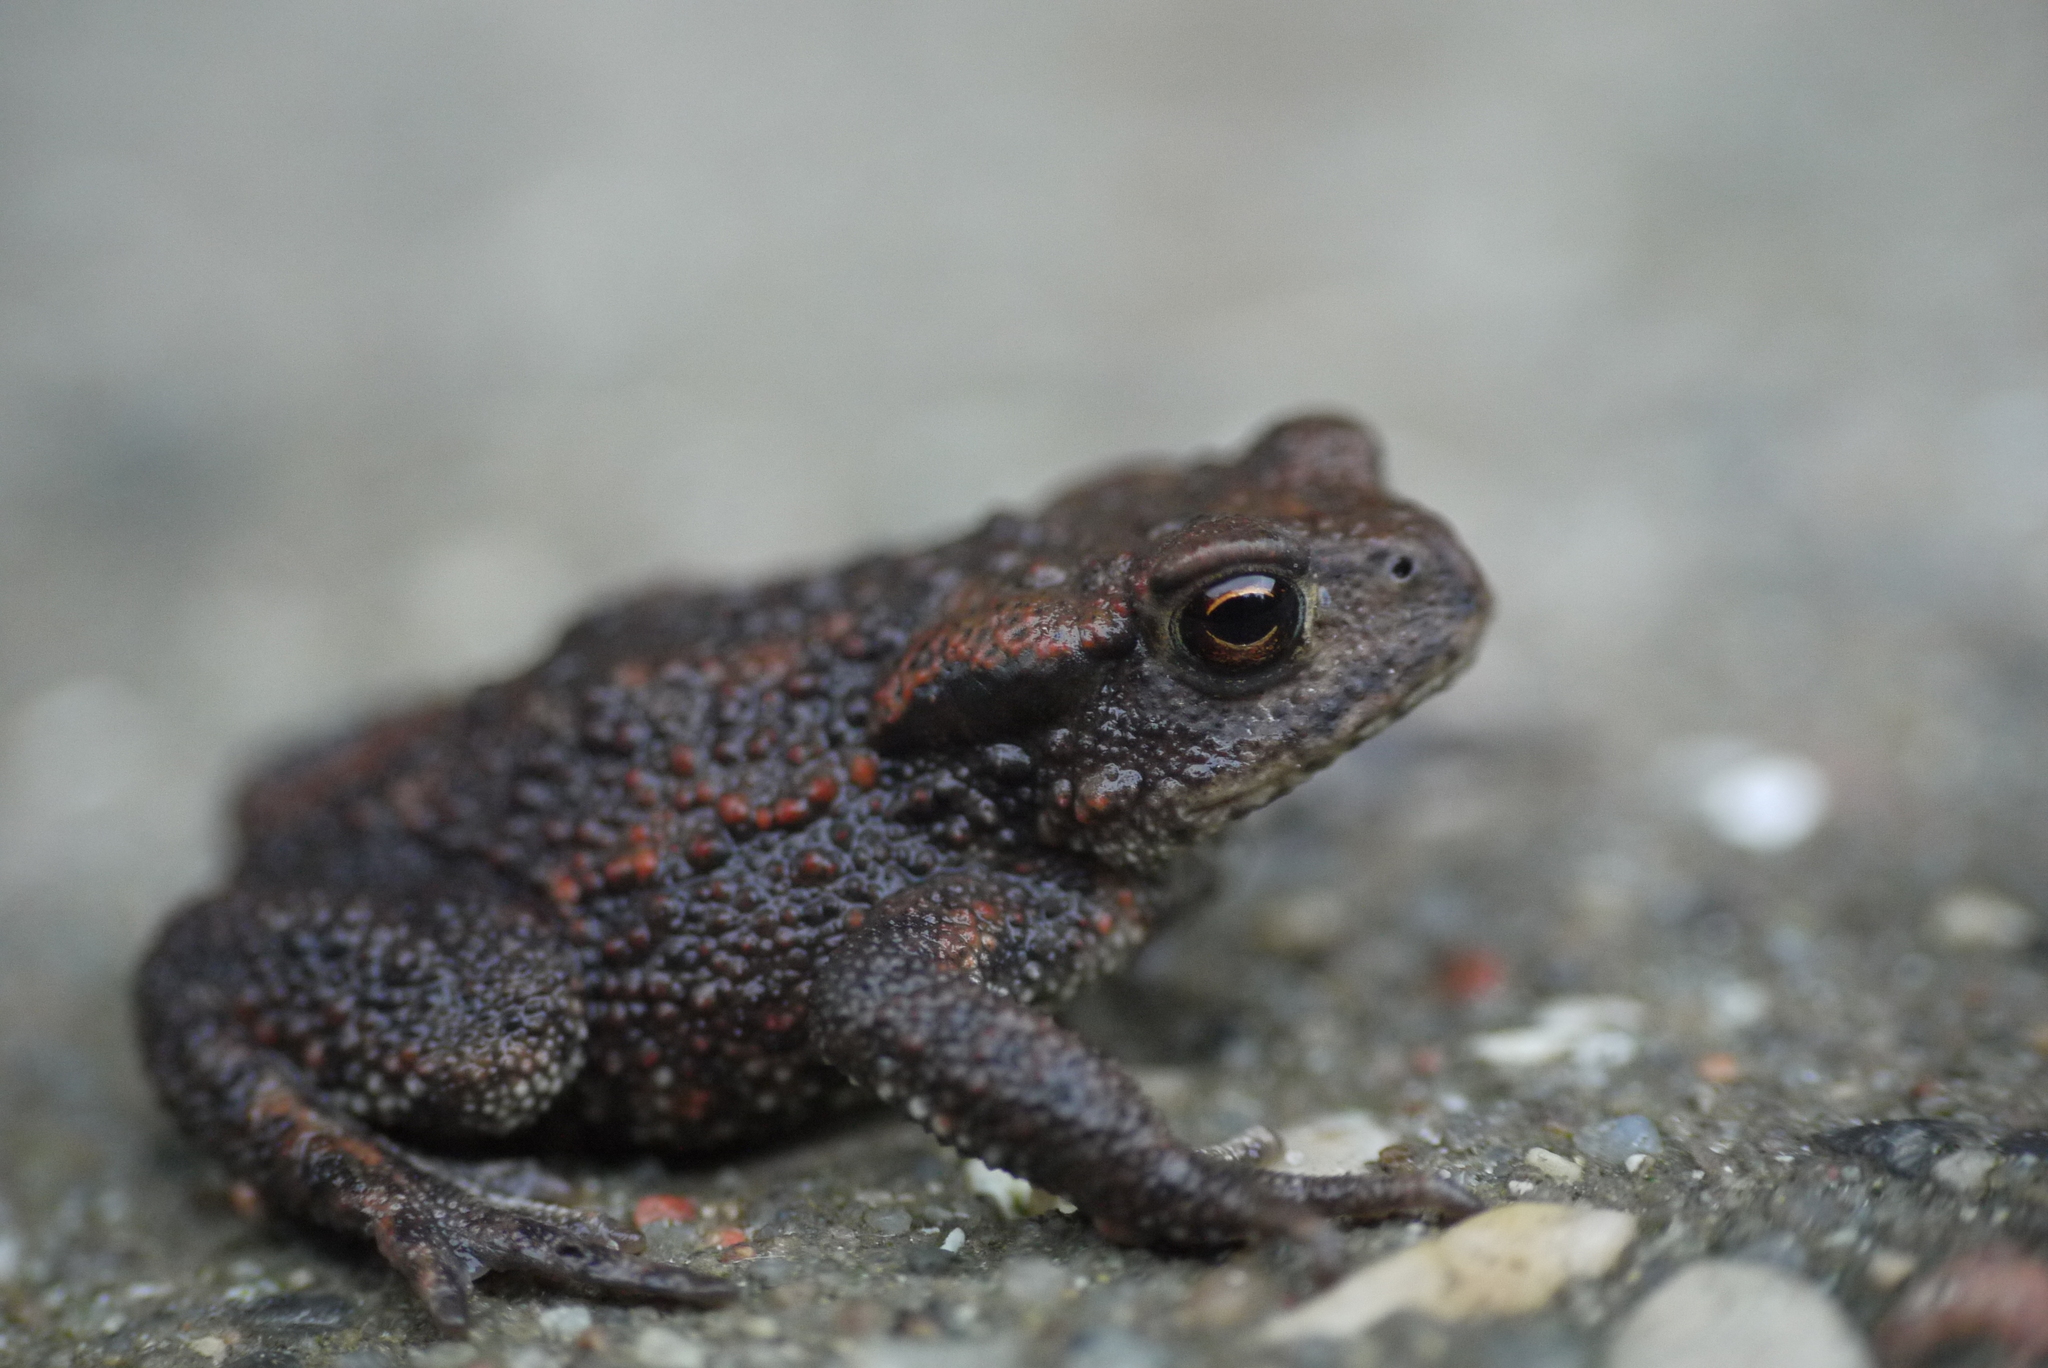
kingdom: Animalia
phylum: Chordata
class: Amphibia
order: Anura
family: Bufonidae
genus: Bufo
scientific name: Bufo bufo
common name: Common toad
